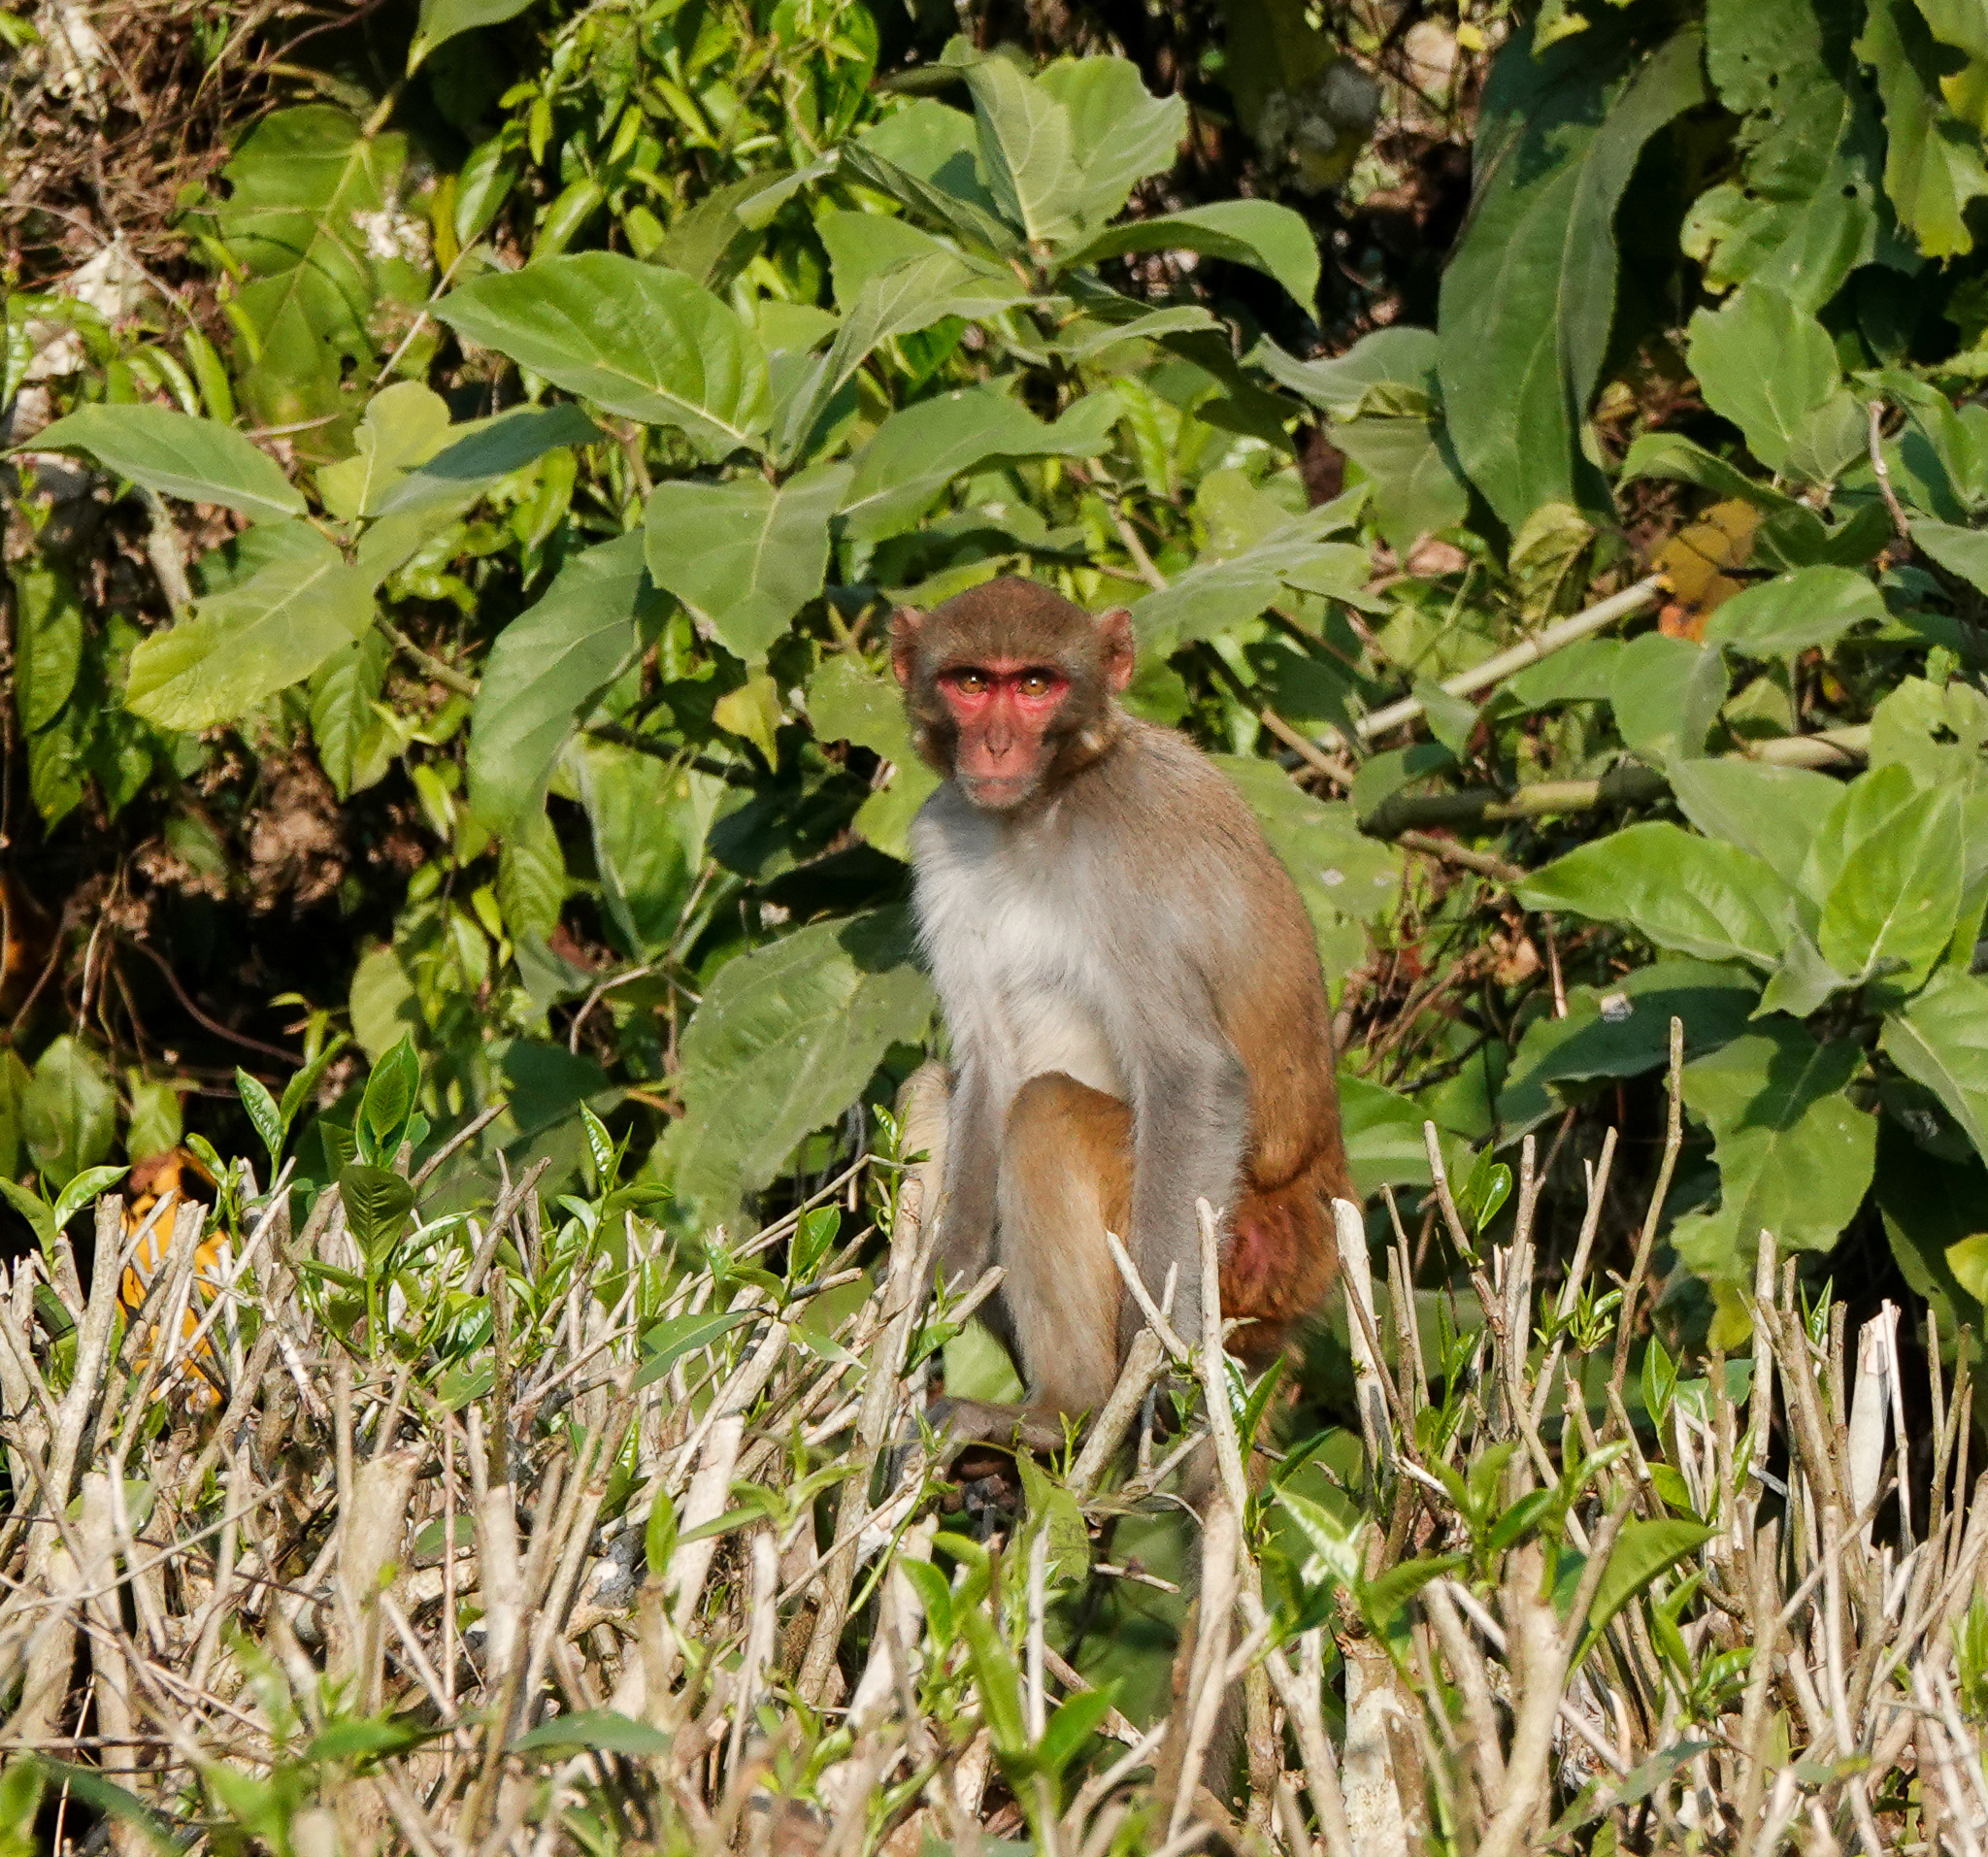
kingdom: Animalia
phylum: Chordata
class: Mammalia
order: Primates
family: Cercopithecidae
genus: Macaca
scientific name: Macaca mulatta
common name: Rhesus monkey
